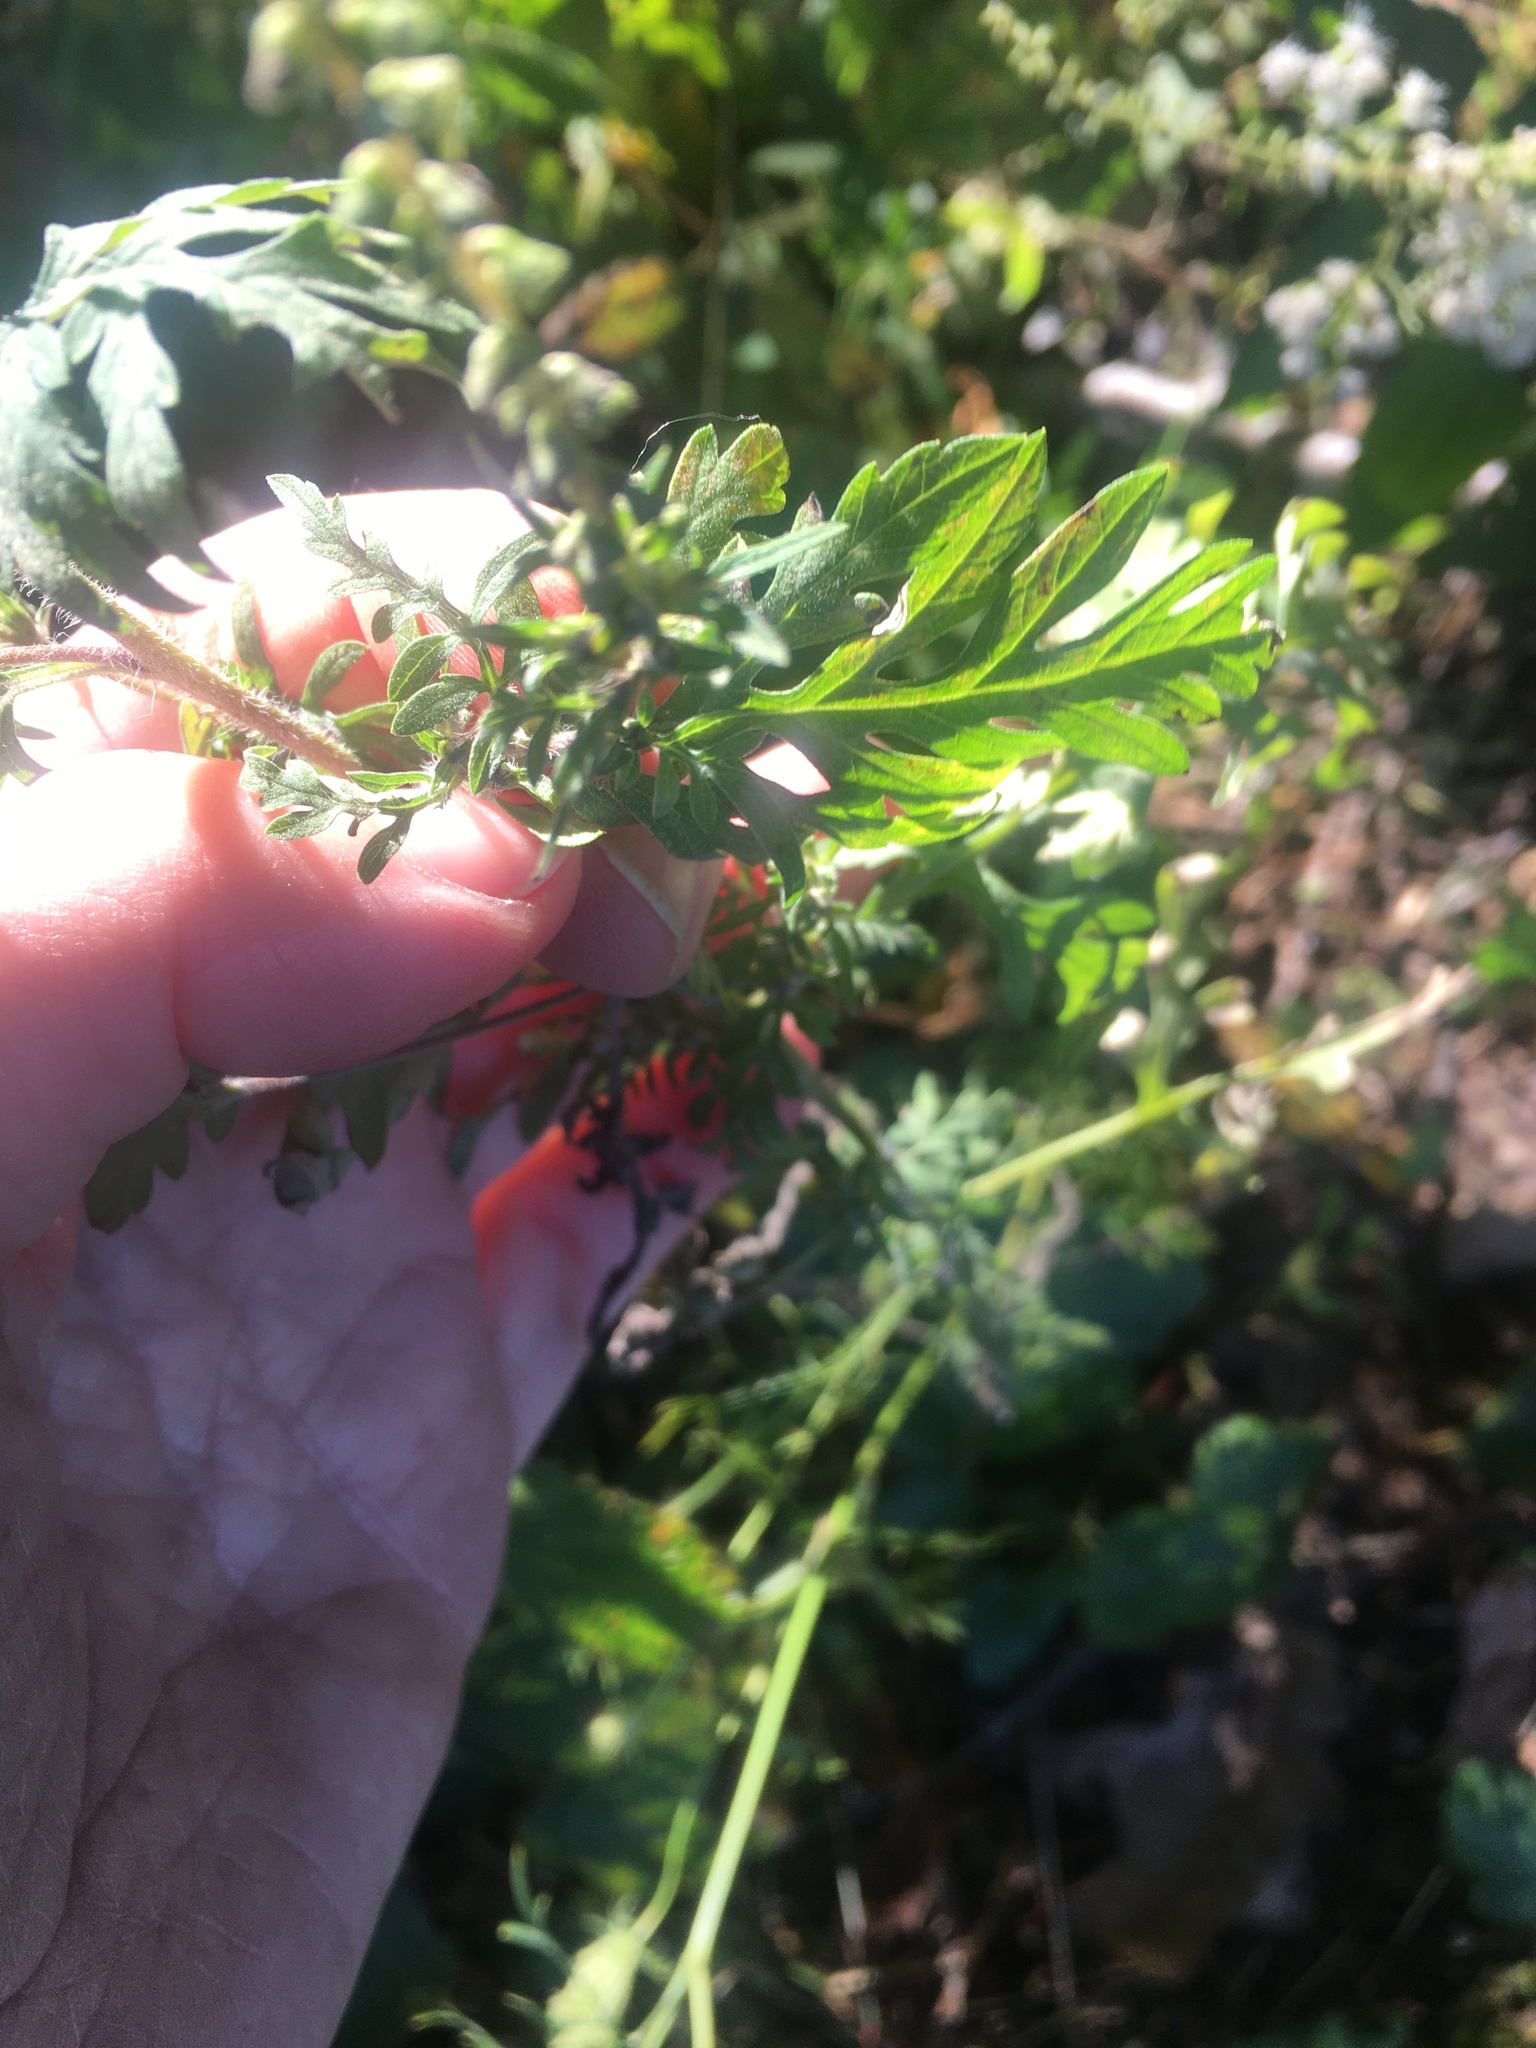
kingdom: Plantae
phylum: Tracheophyta
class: Magnoliopsida
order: Asterales
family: Asteraceae
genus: Ambrosia
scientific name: Ambrosia artemisiifolia
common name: Annual ragweed
